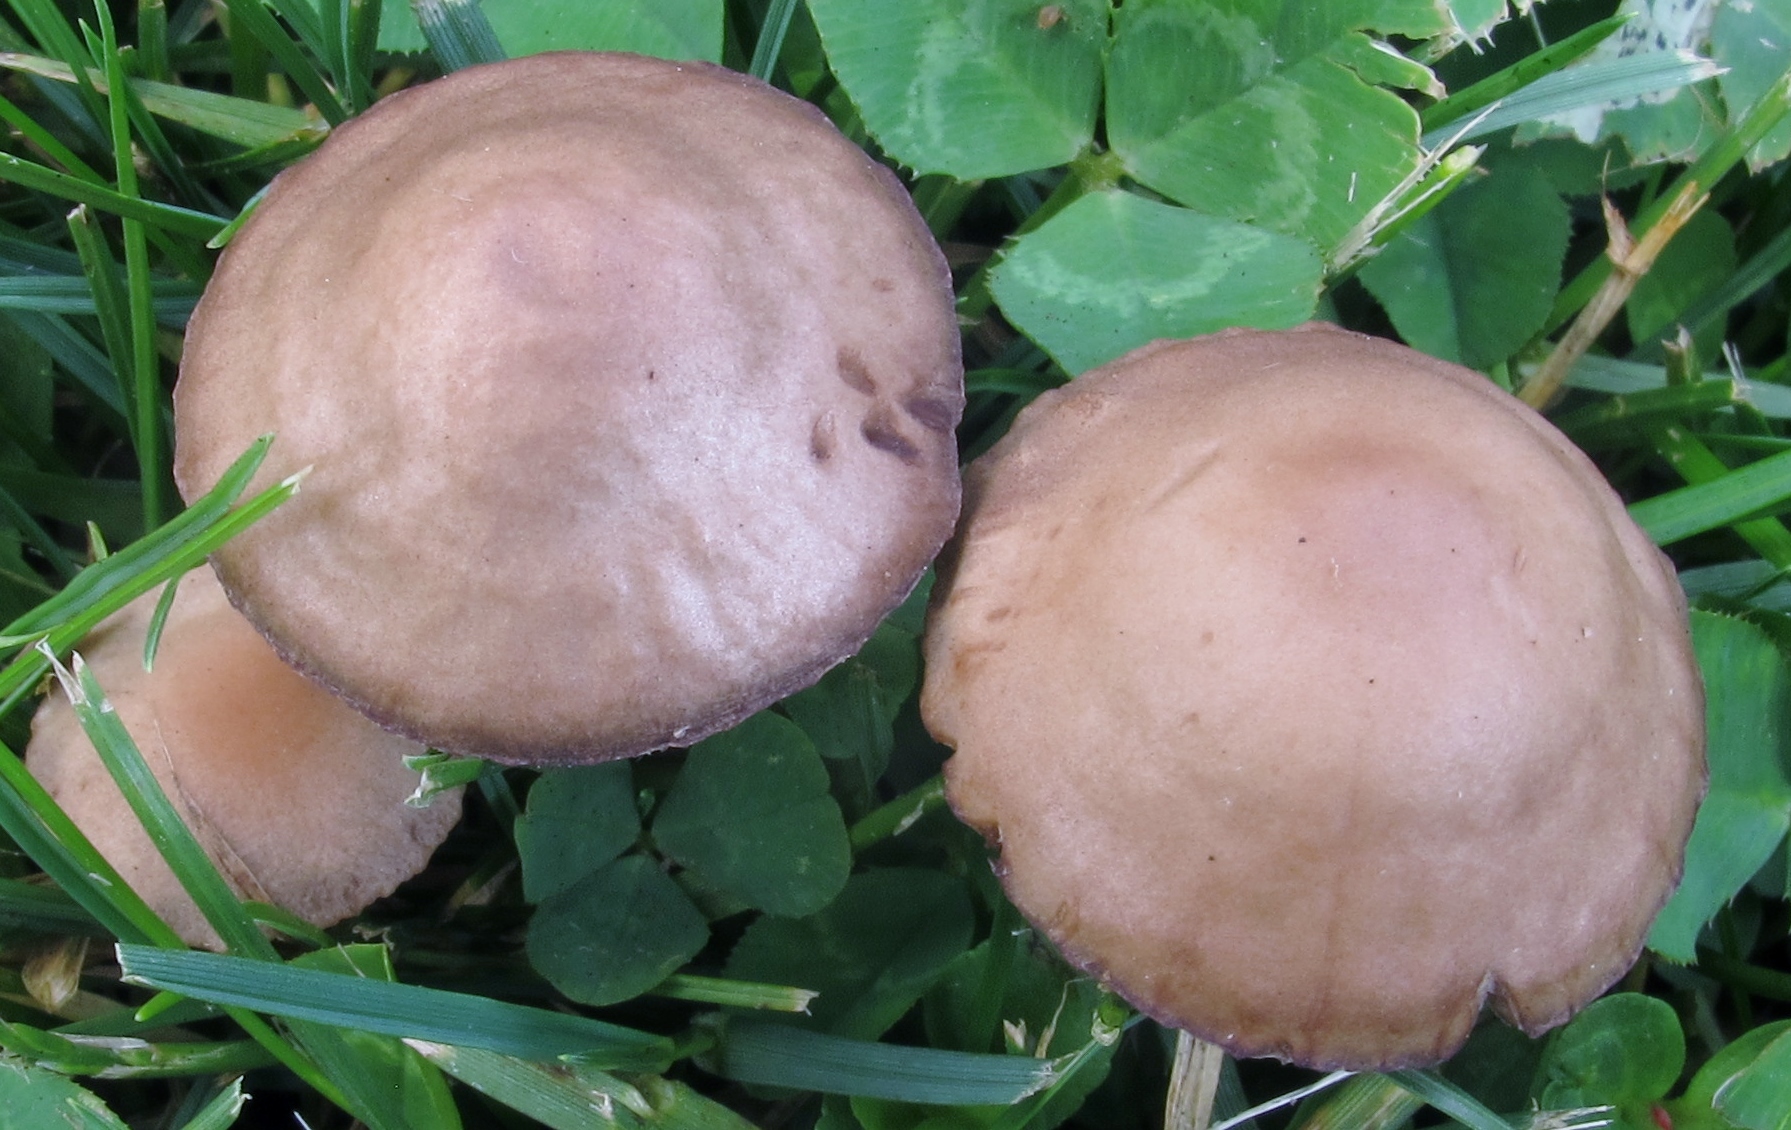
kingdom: Fungi
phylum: Basidiomycota
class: Agaricomycetes
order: Agaricales
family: Bolbitiaceae
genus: Panaeolina
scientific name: Panaeolina foenisecii
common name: Brown hay cap
